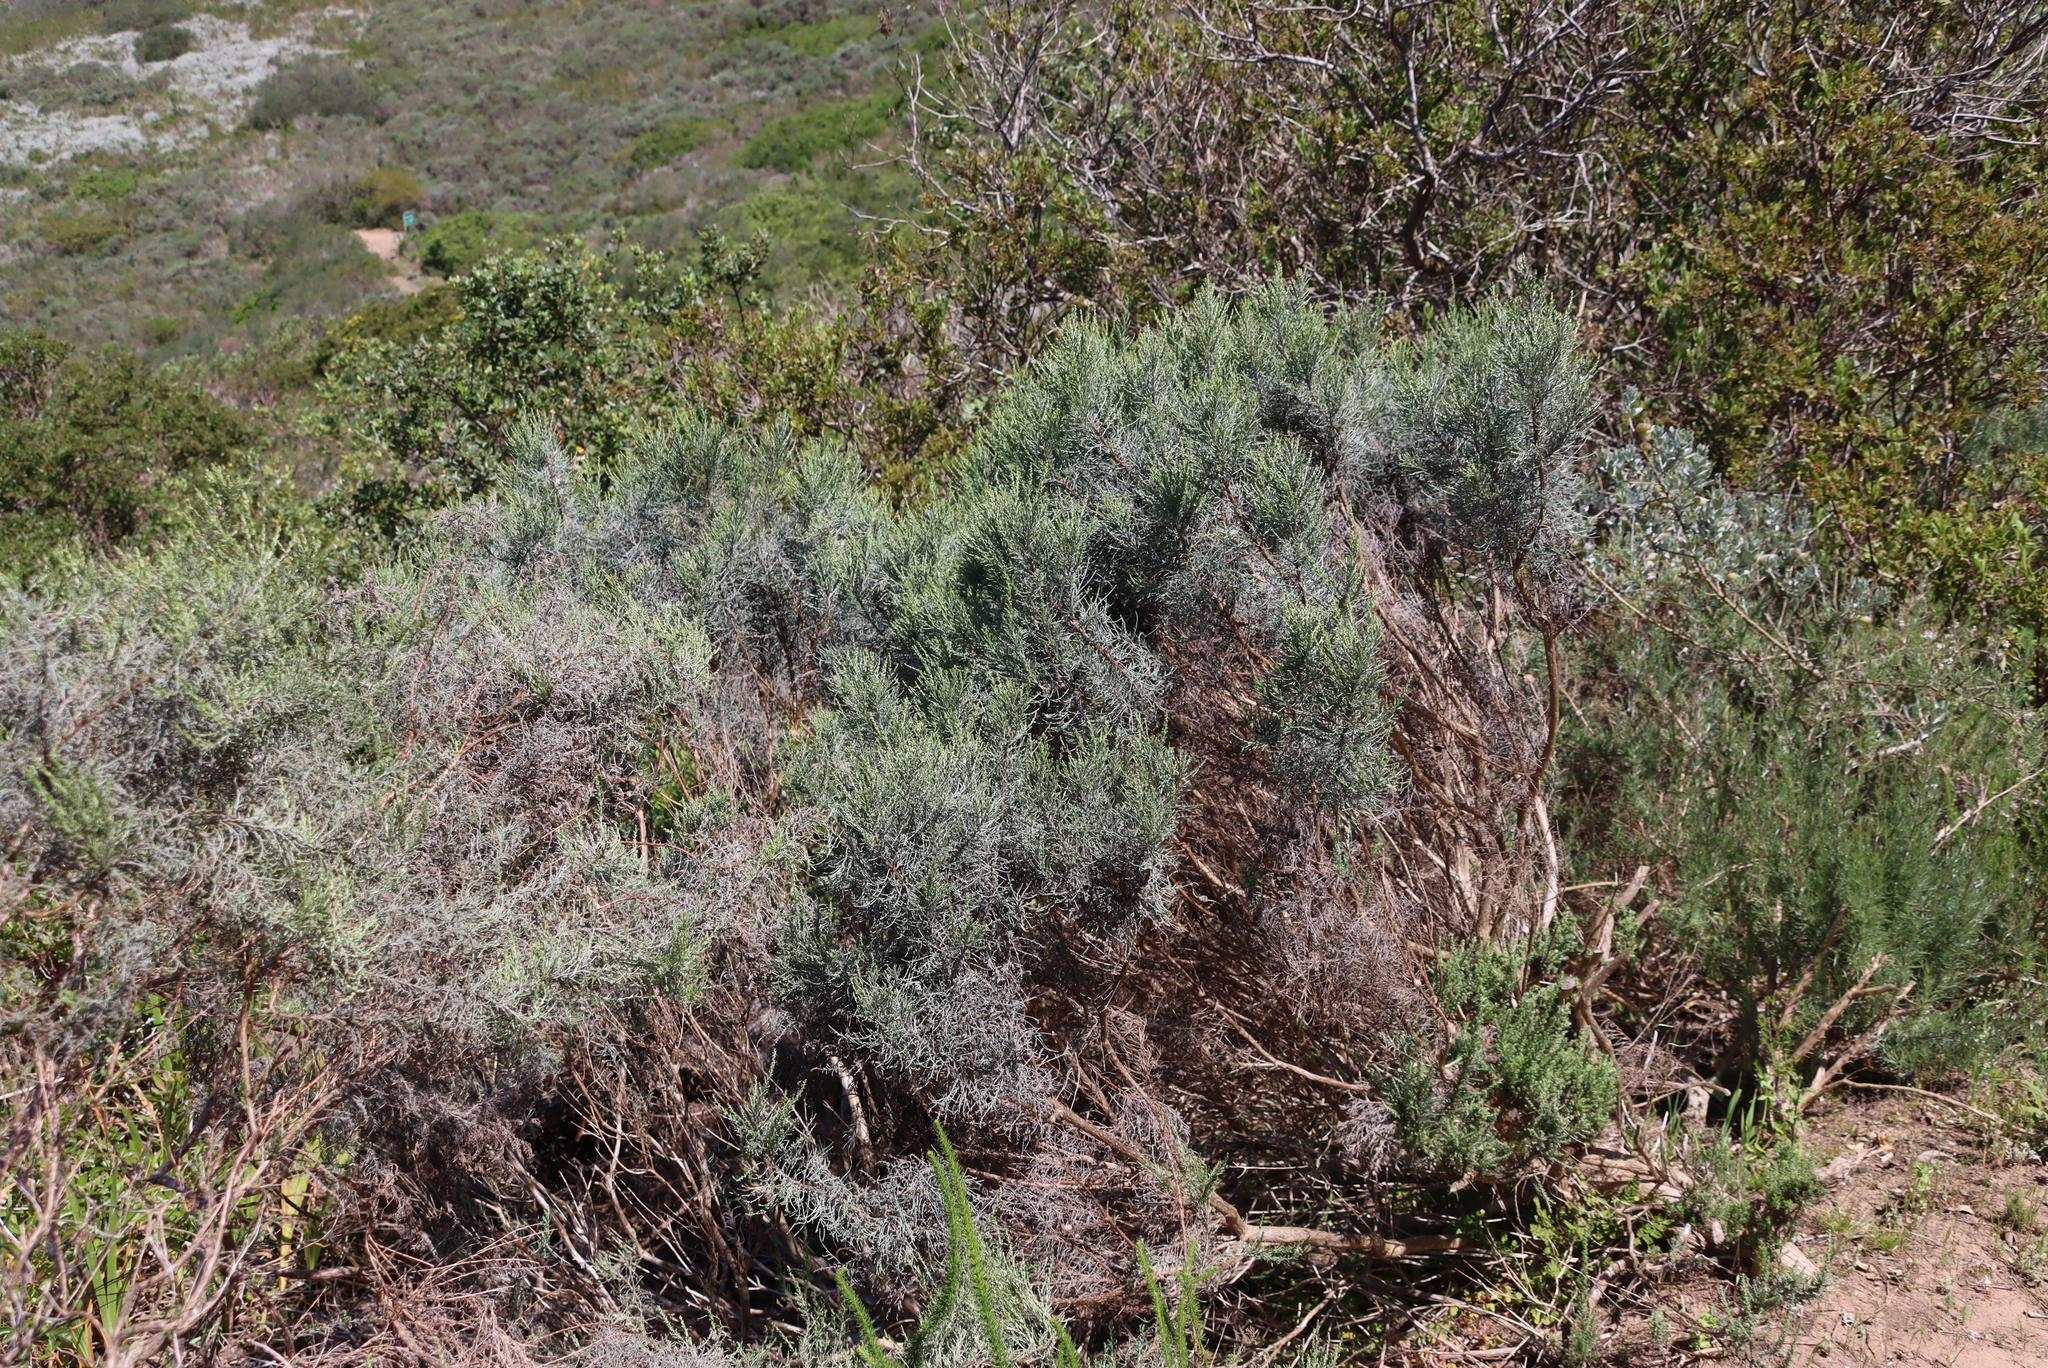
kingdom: Plantae
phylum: Tracheophyta
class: Magnoliopsida
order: Asterales
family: Asteraceae
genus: Dicerothamnus
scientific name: Dicerothamnus rhinocerotis
